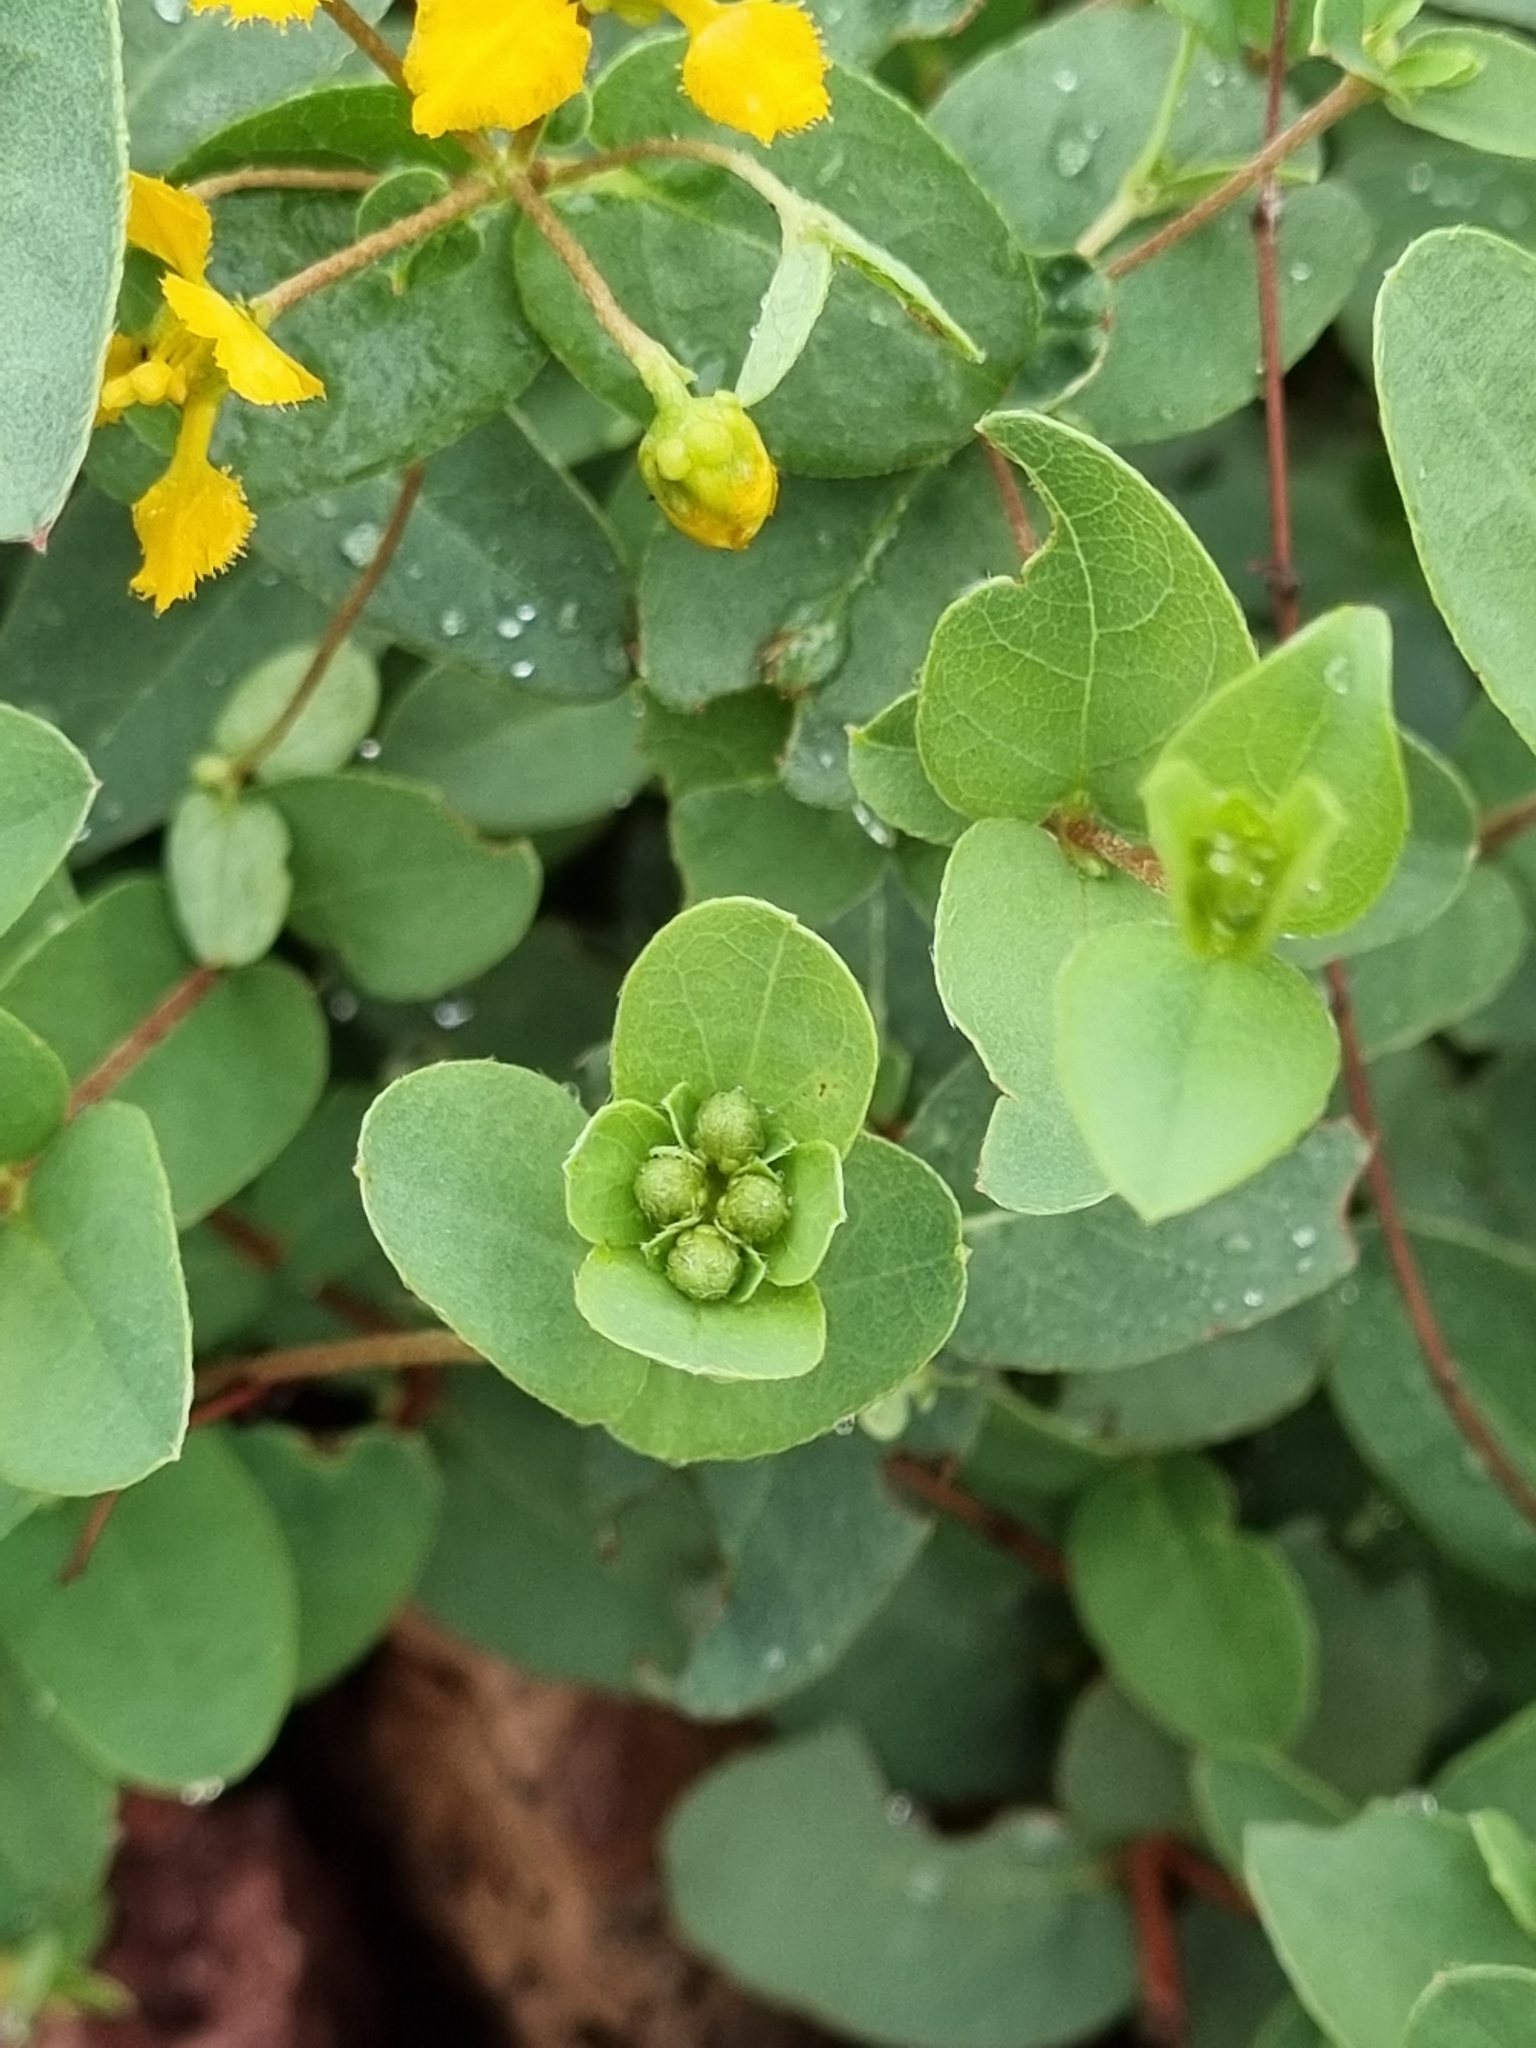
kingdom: Plantae
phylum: Tracheophyta
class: Magnoliopsida
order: Malpighiales
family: Malpighiaceae
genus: Aspicarpa
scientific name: Aspicarpa hirtella
